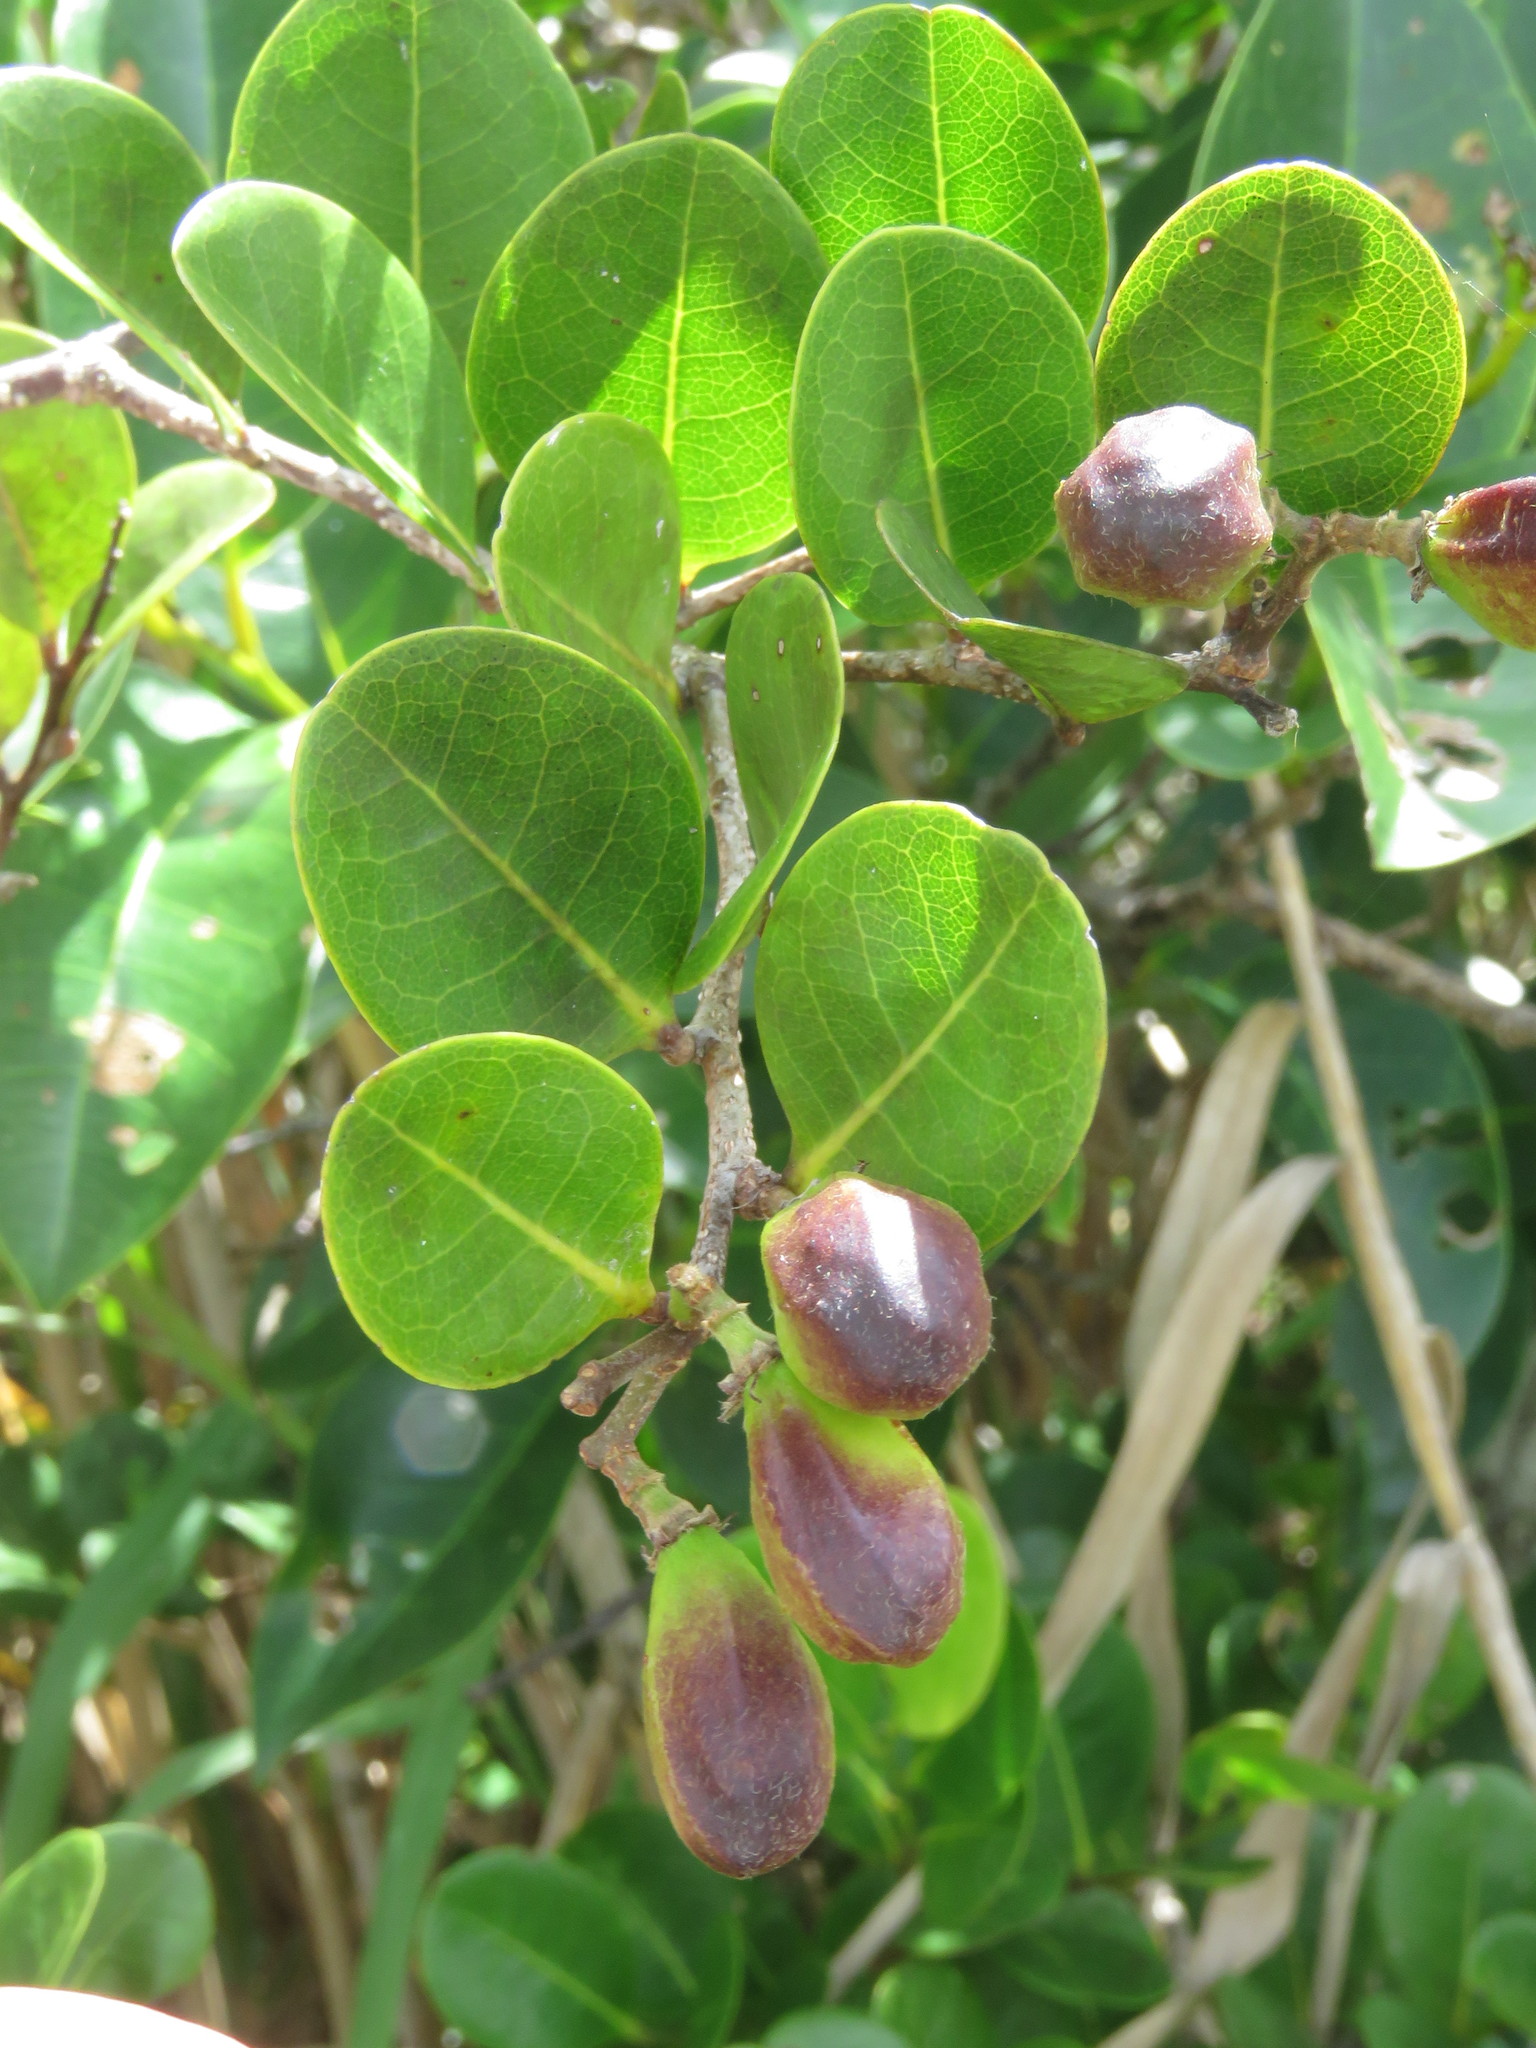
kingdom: Plantae
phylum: Tracheophyta
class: Magnoliopsida
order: Malpighiales
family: Chrysobalanaceae
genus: Chrysobalanus
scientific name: Chrysobalanus icaco
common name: Coco plum
